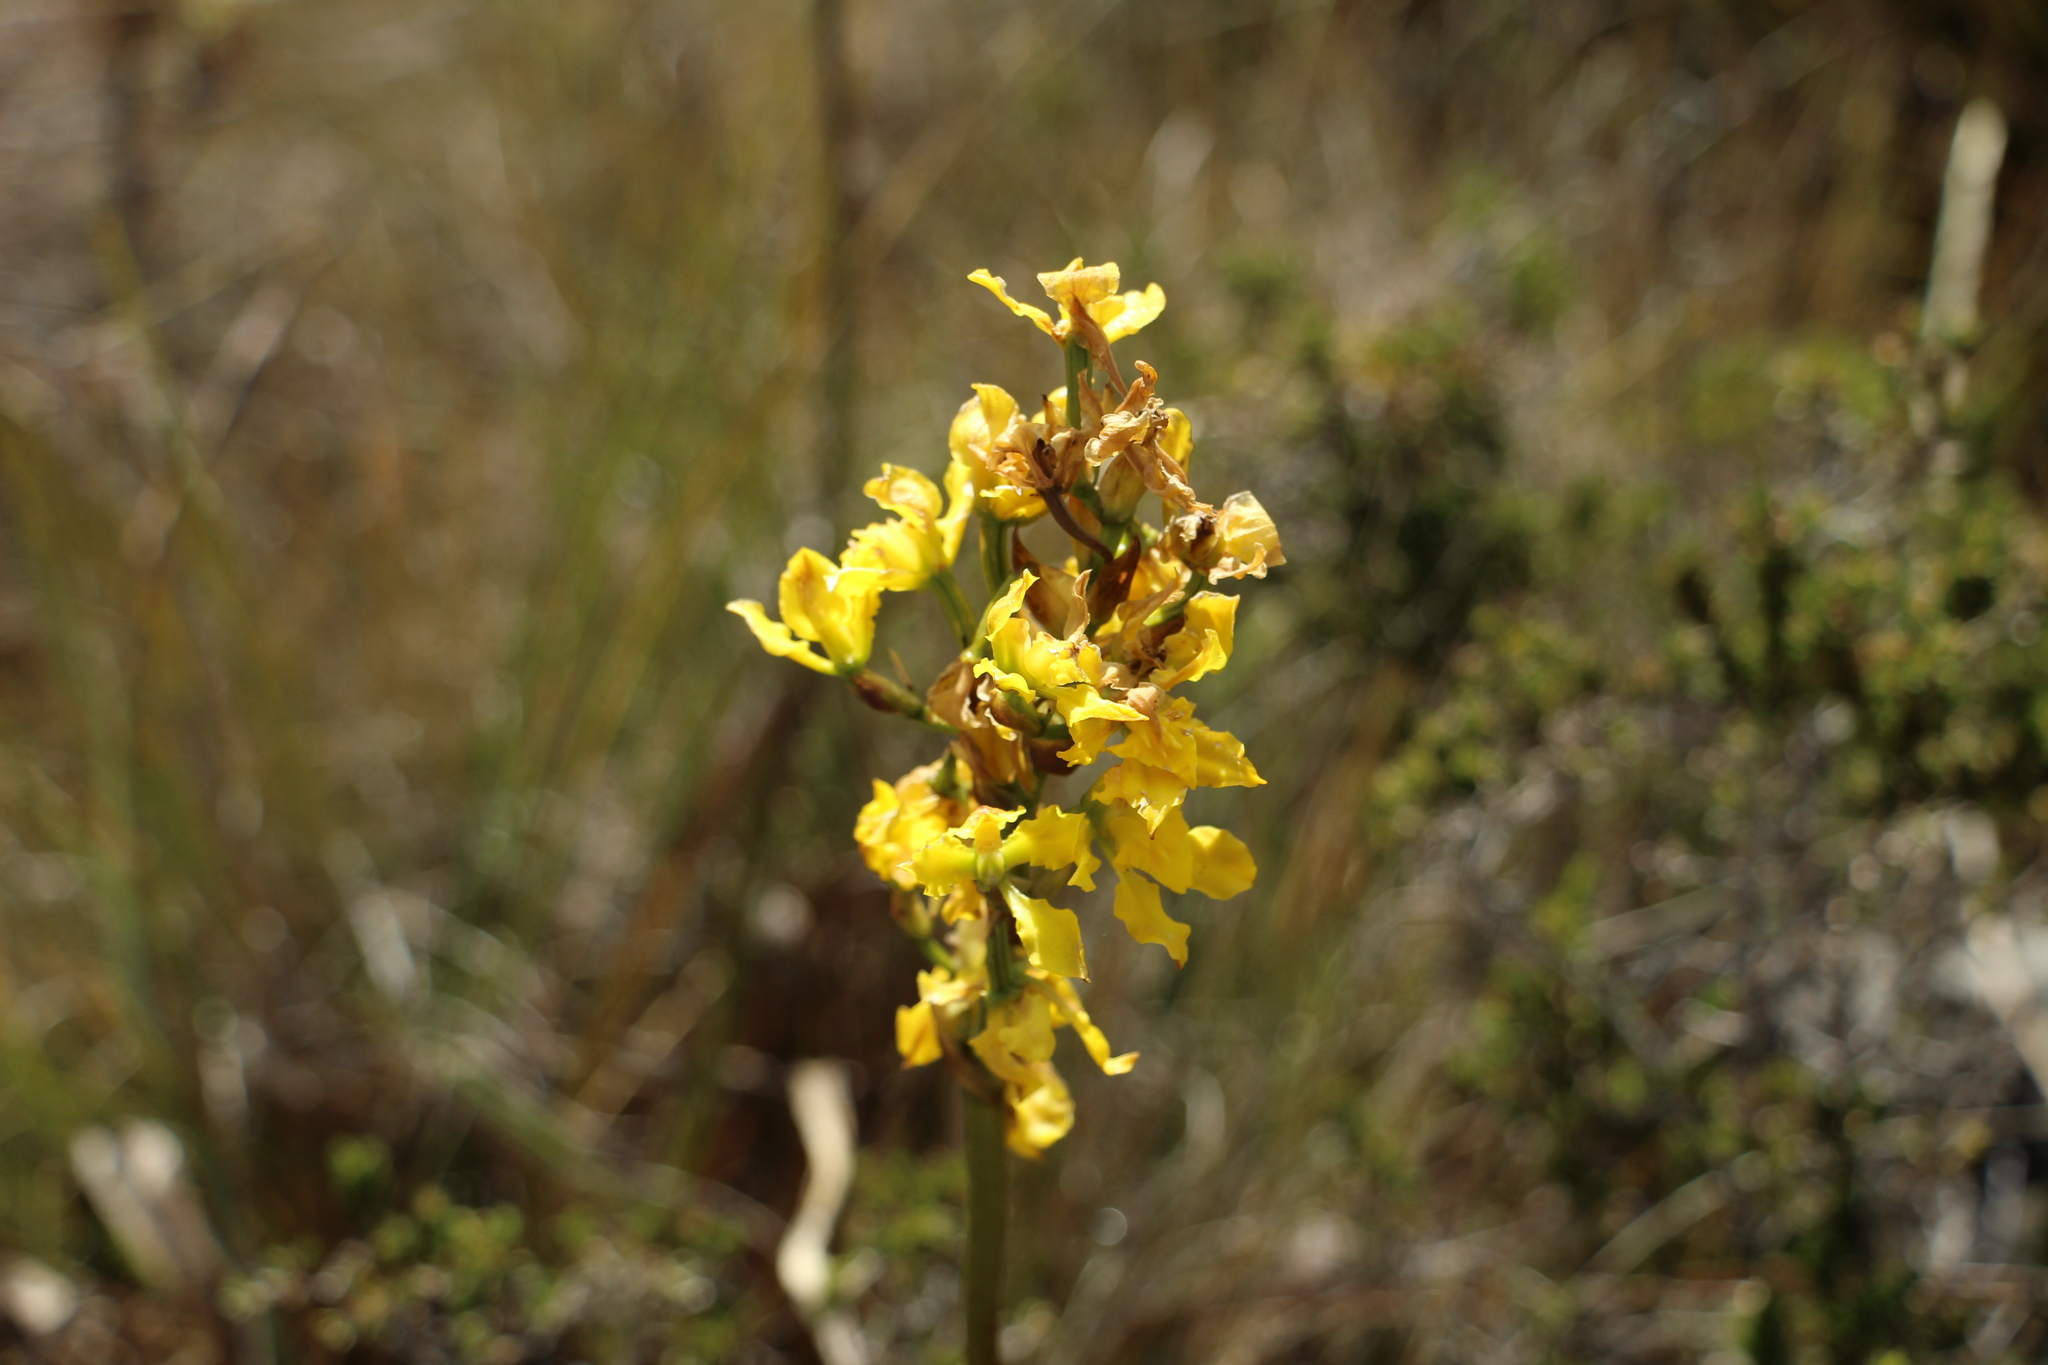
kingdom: Plantae
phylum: Tracheophyta
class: Liliopsida
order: Asparagales
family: Orchidaceae
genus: Cyrtochilum
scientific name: Cyrtochilum revolutum
